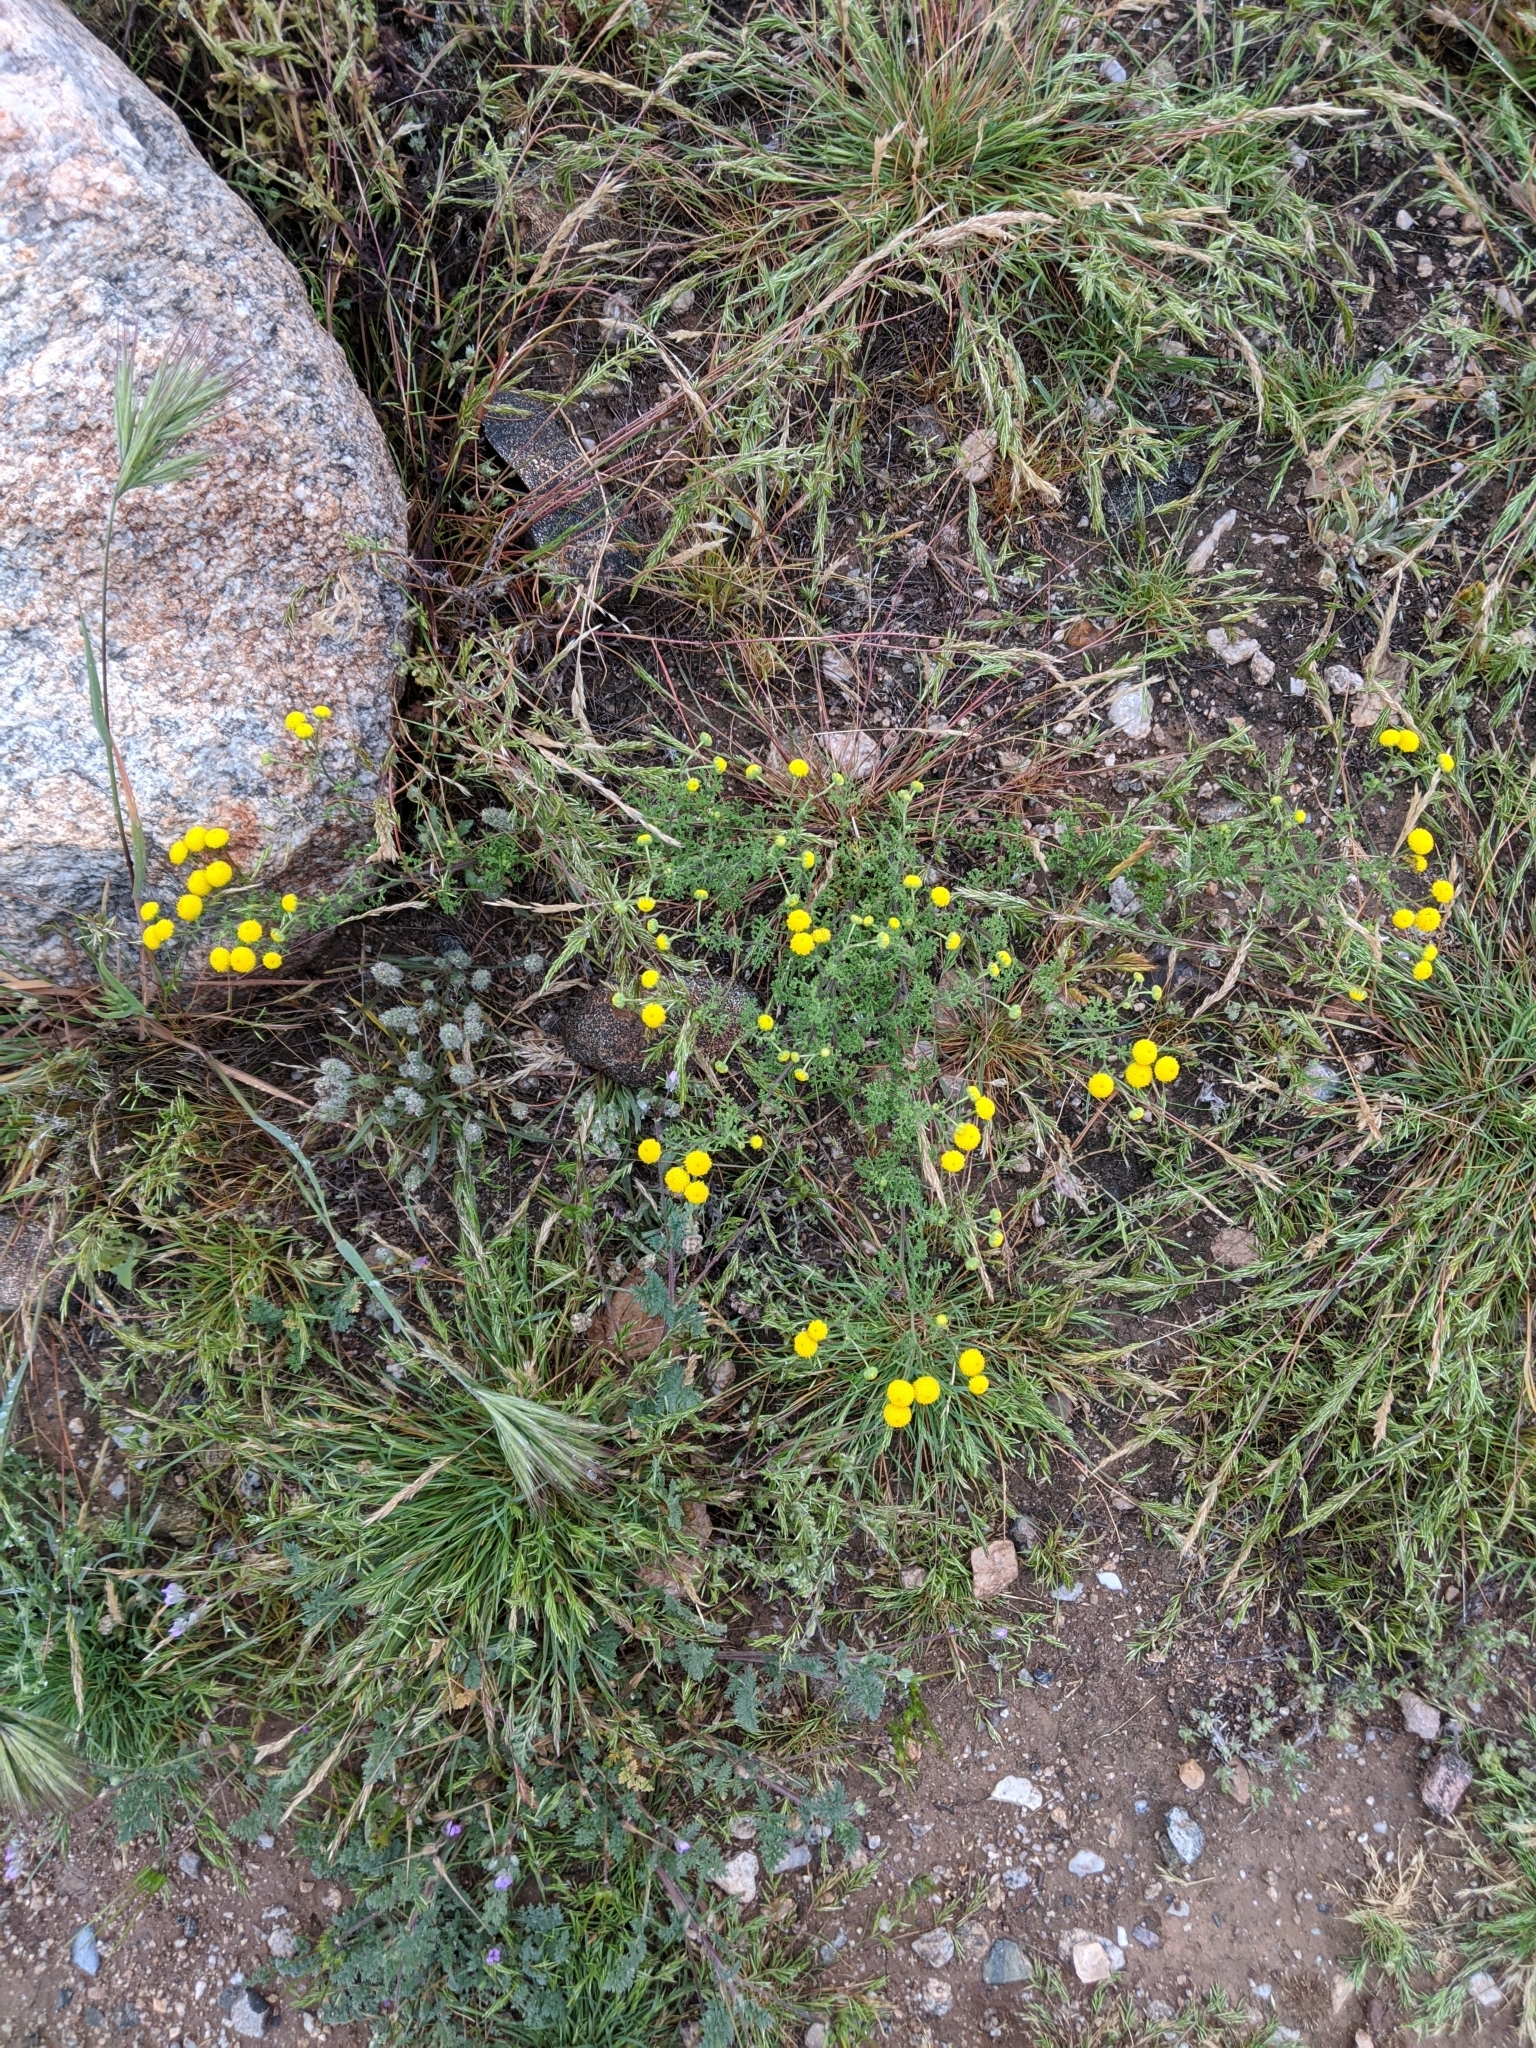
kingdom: Plantae
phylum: Tracheophyta
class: Magnoliopsida
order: Asterales
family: Asteraceae
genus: Oncosiphon
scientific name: Oncosiphon pilulifer
